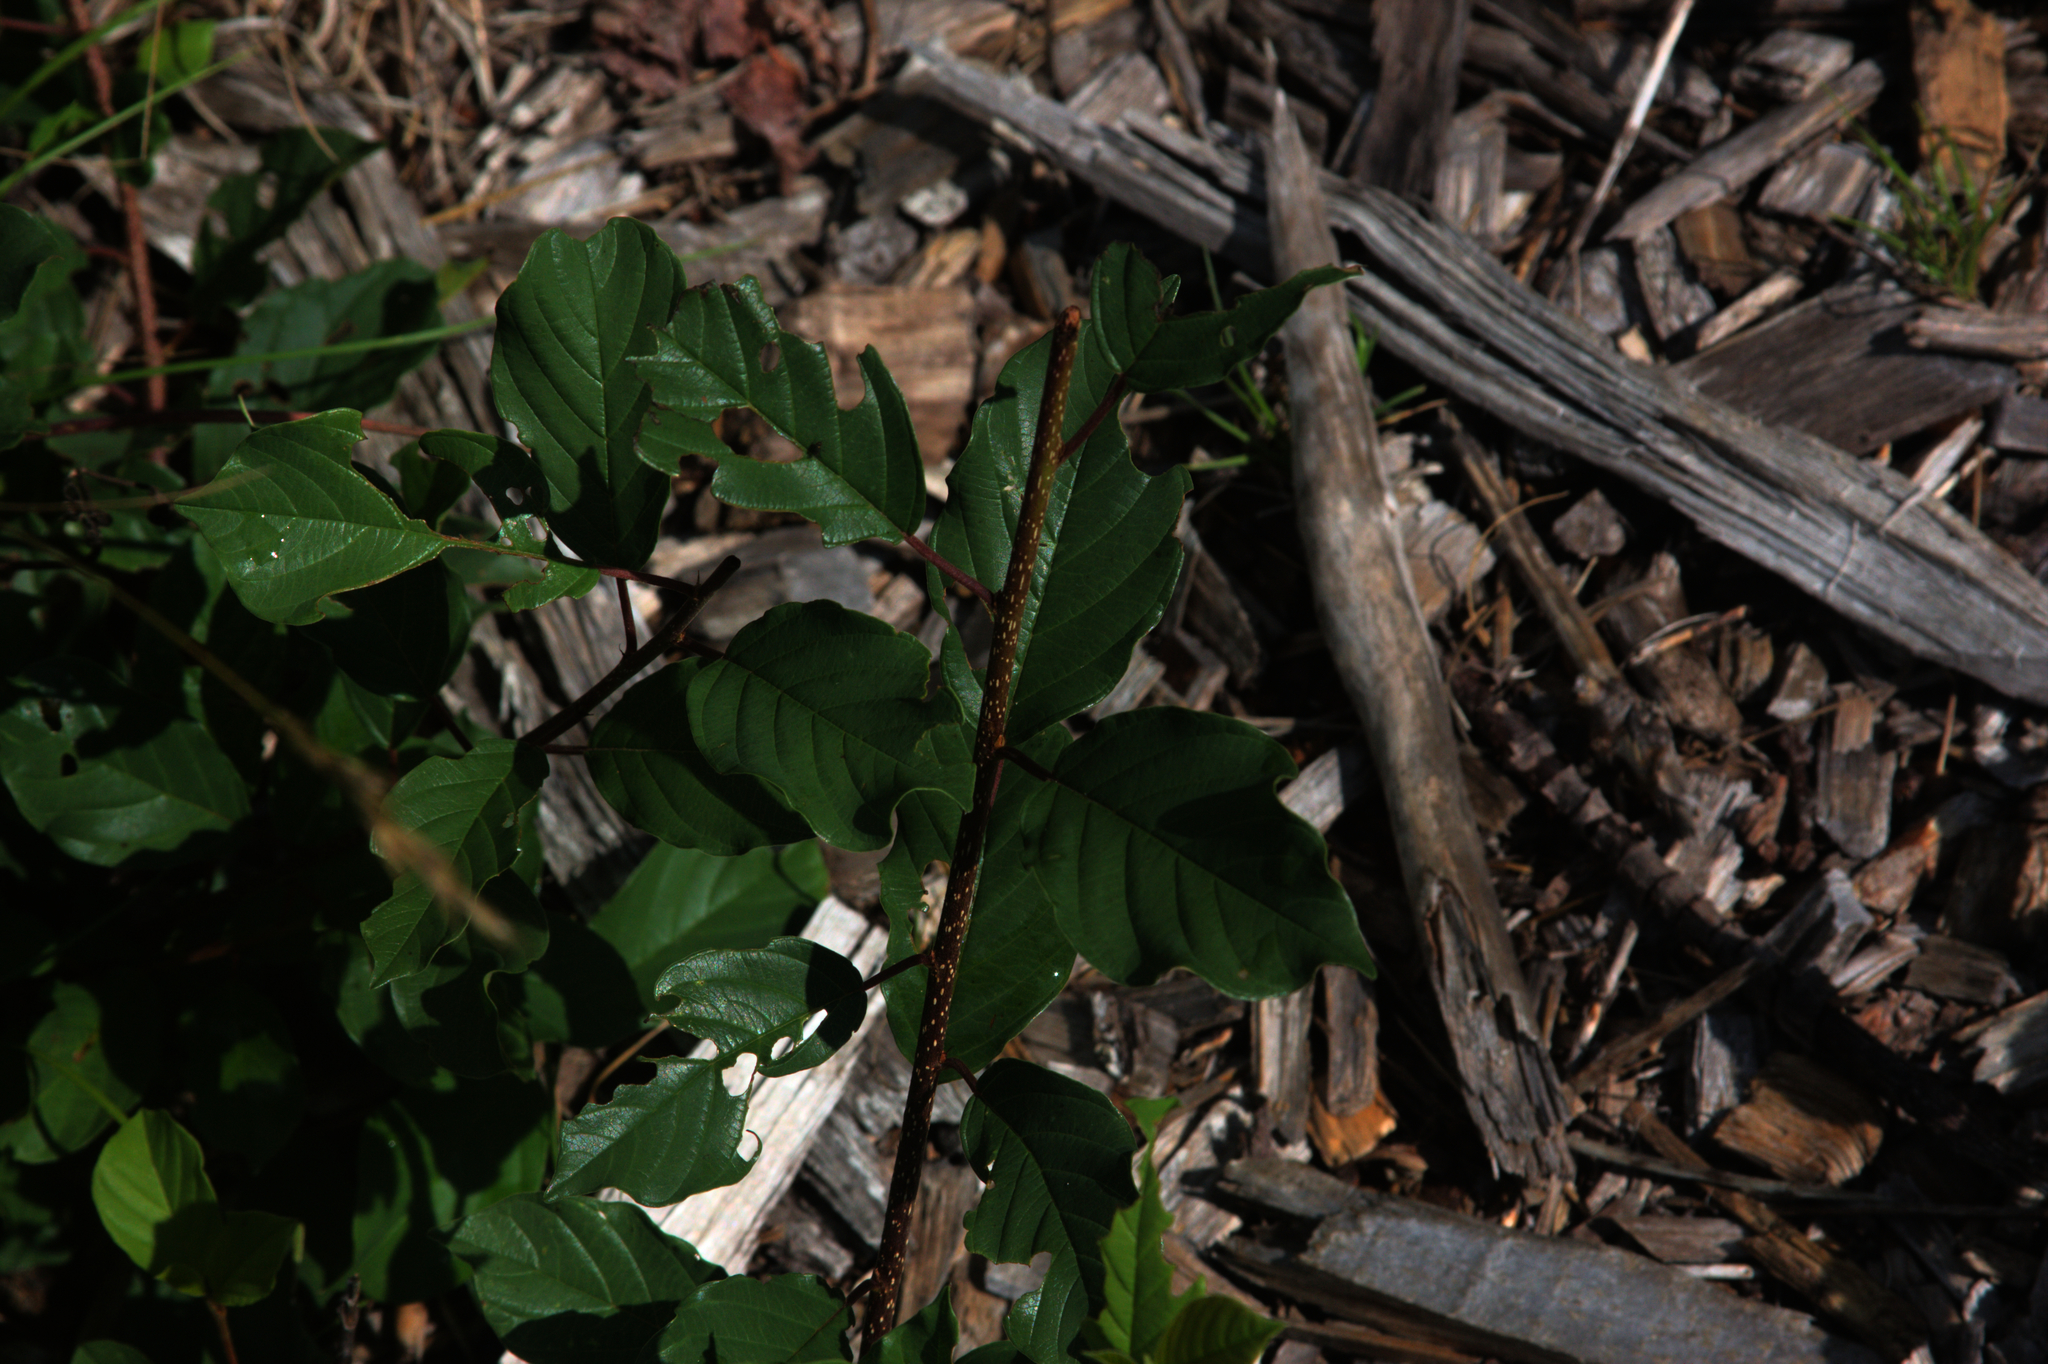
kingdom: Plantae
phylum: Tracheophyta
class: Magnoliopsida
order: Rosales
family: Rhamnaceae
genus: Frangula
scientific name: Frangula alnus
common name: Alder buckthorn
